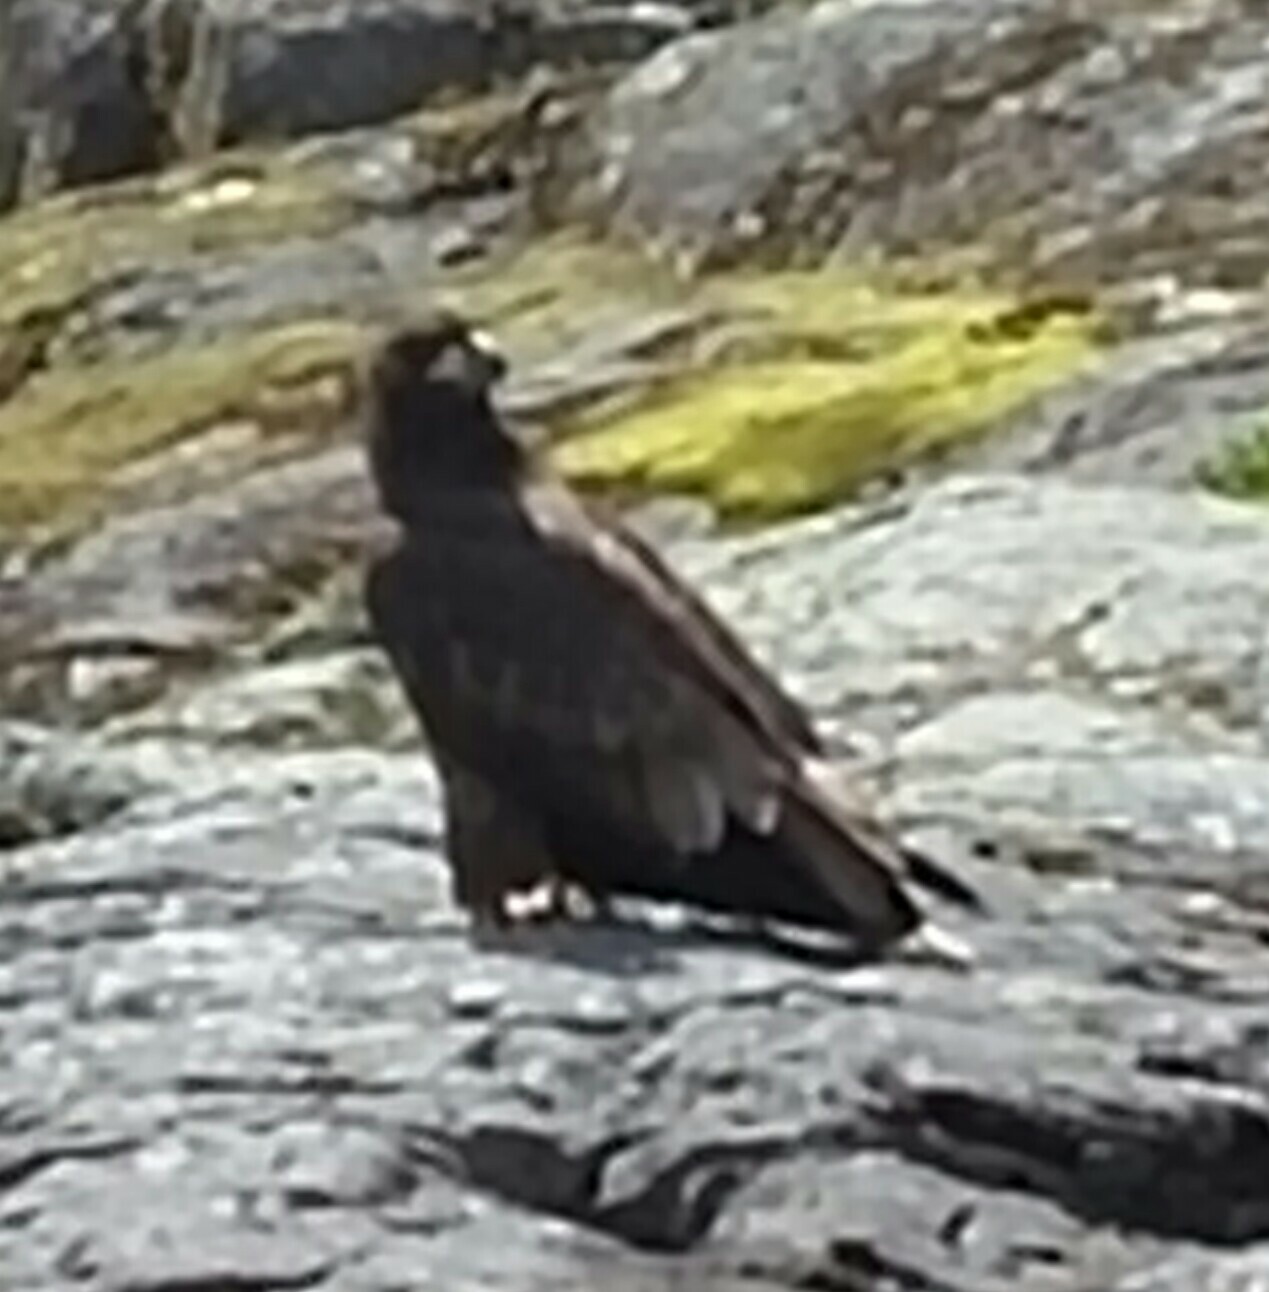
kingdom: Animalia
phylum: Chordata
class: Aves
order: Accipitriformes
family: Accipitridae
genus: Aquila
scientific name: Aquila chrysaetos
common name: Golden eagle
